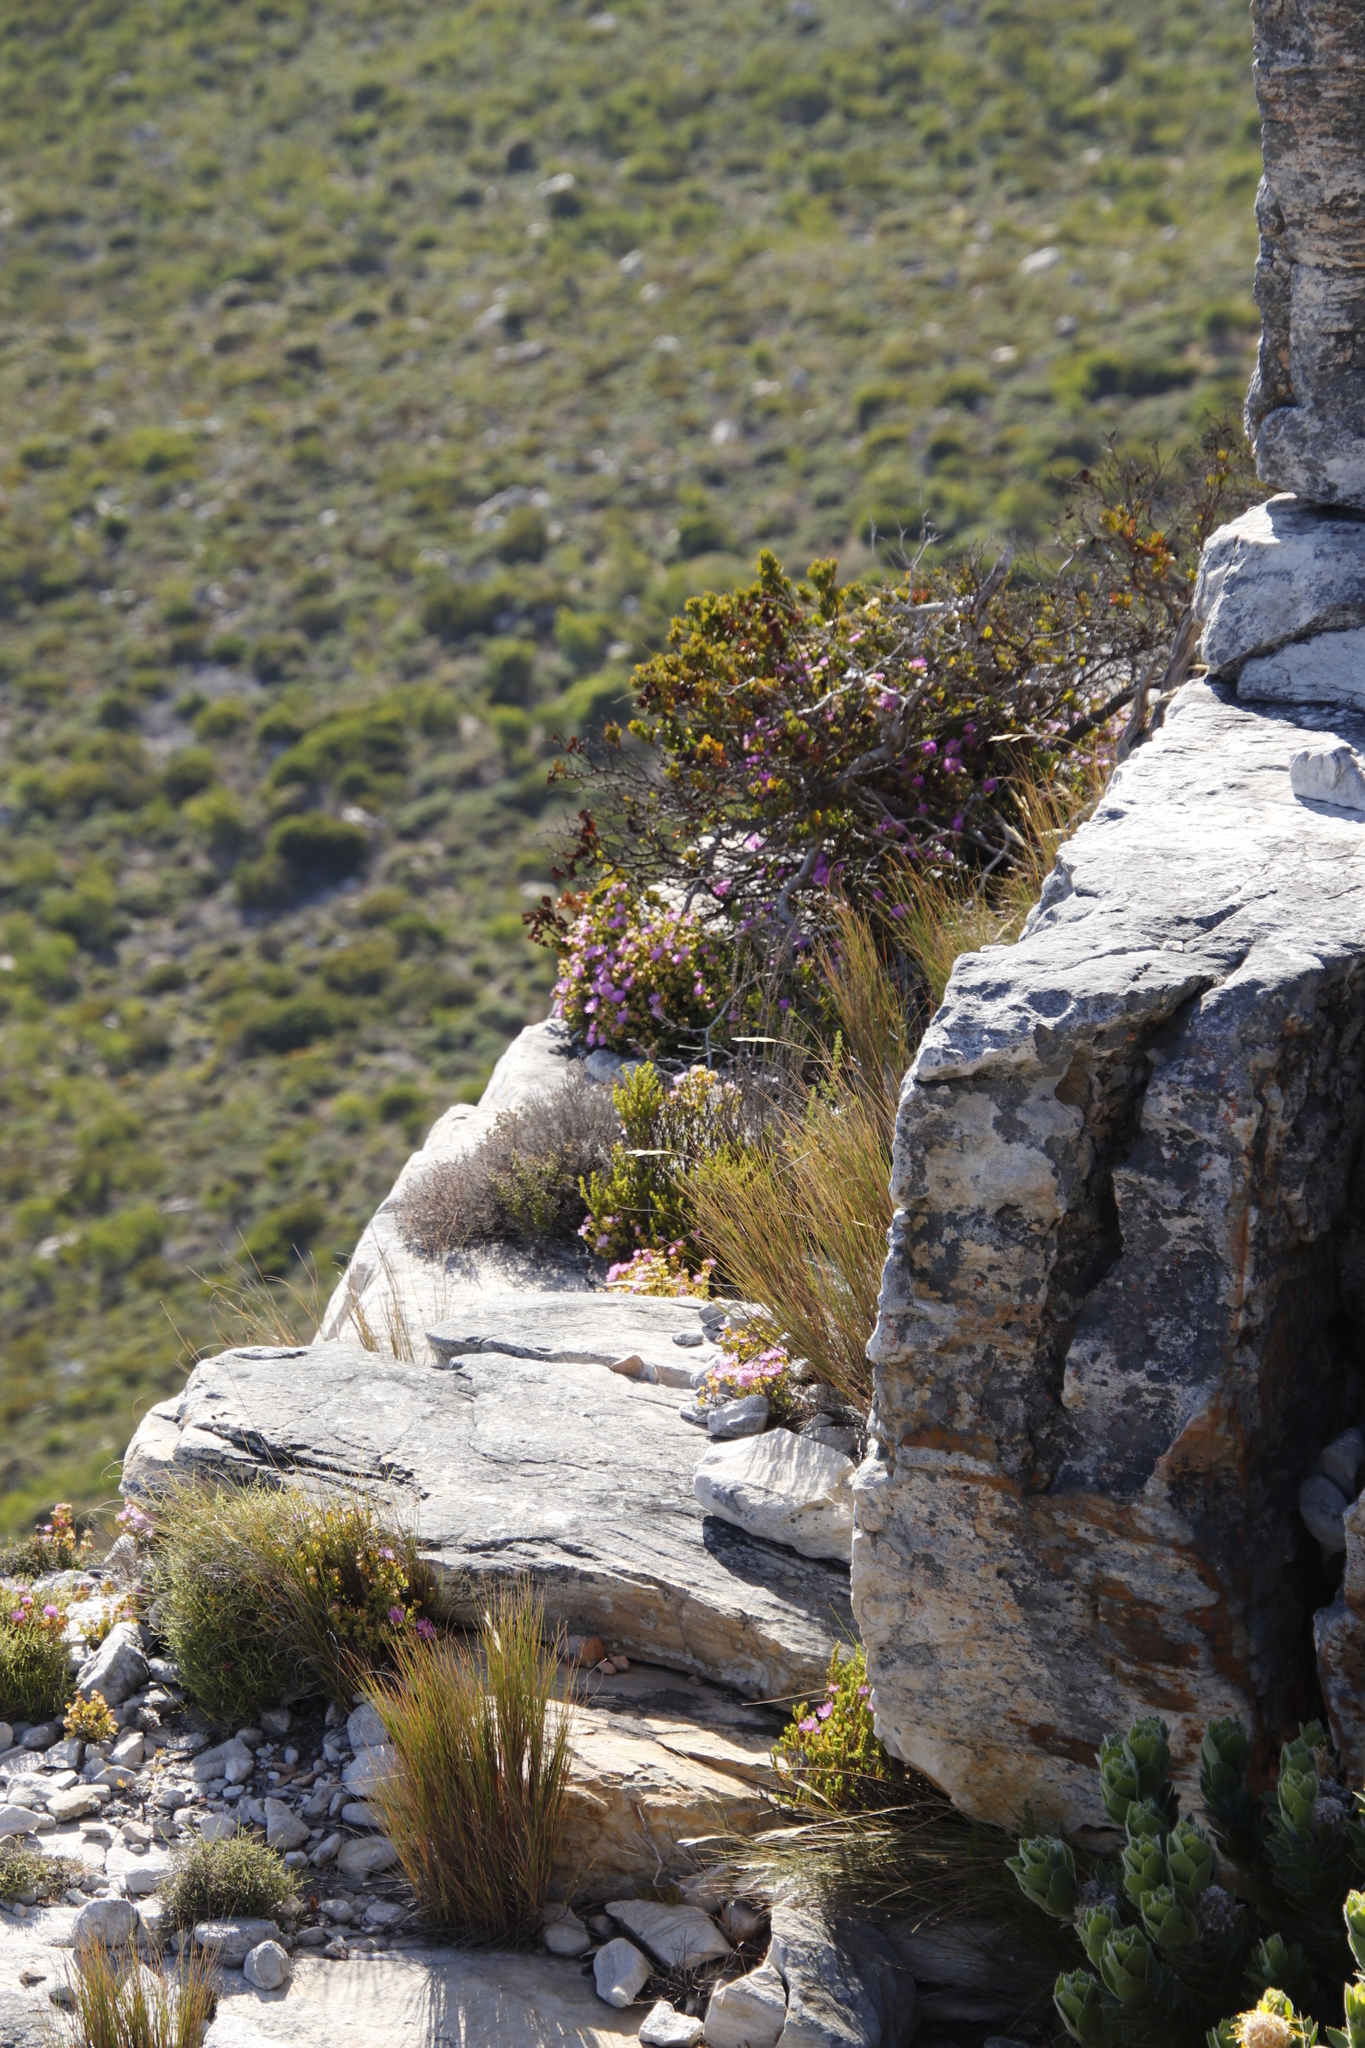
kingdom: Plantae
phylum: Tracheophyta
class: Magnoliopsida
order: Caryophyllales
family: Aizoaceae
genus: Oscularia
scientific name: Oscularia falciformis
